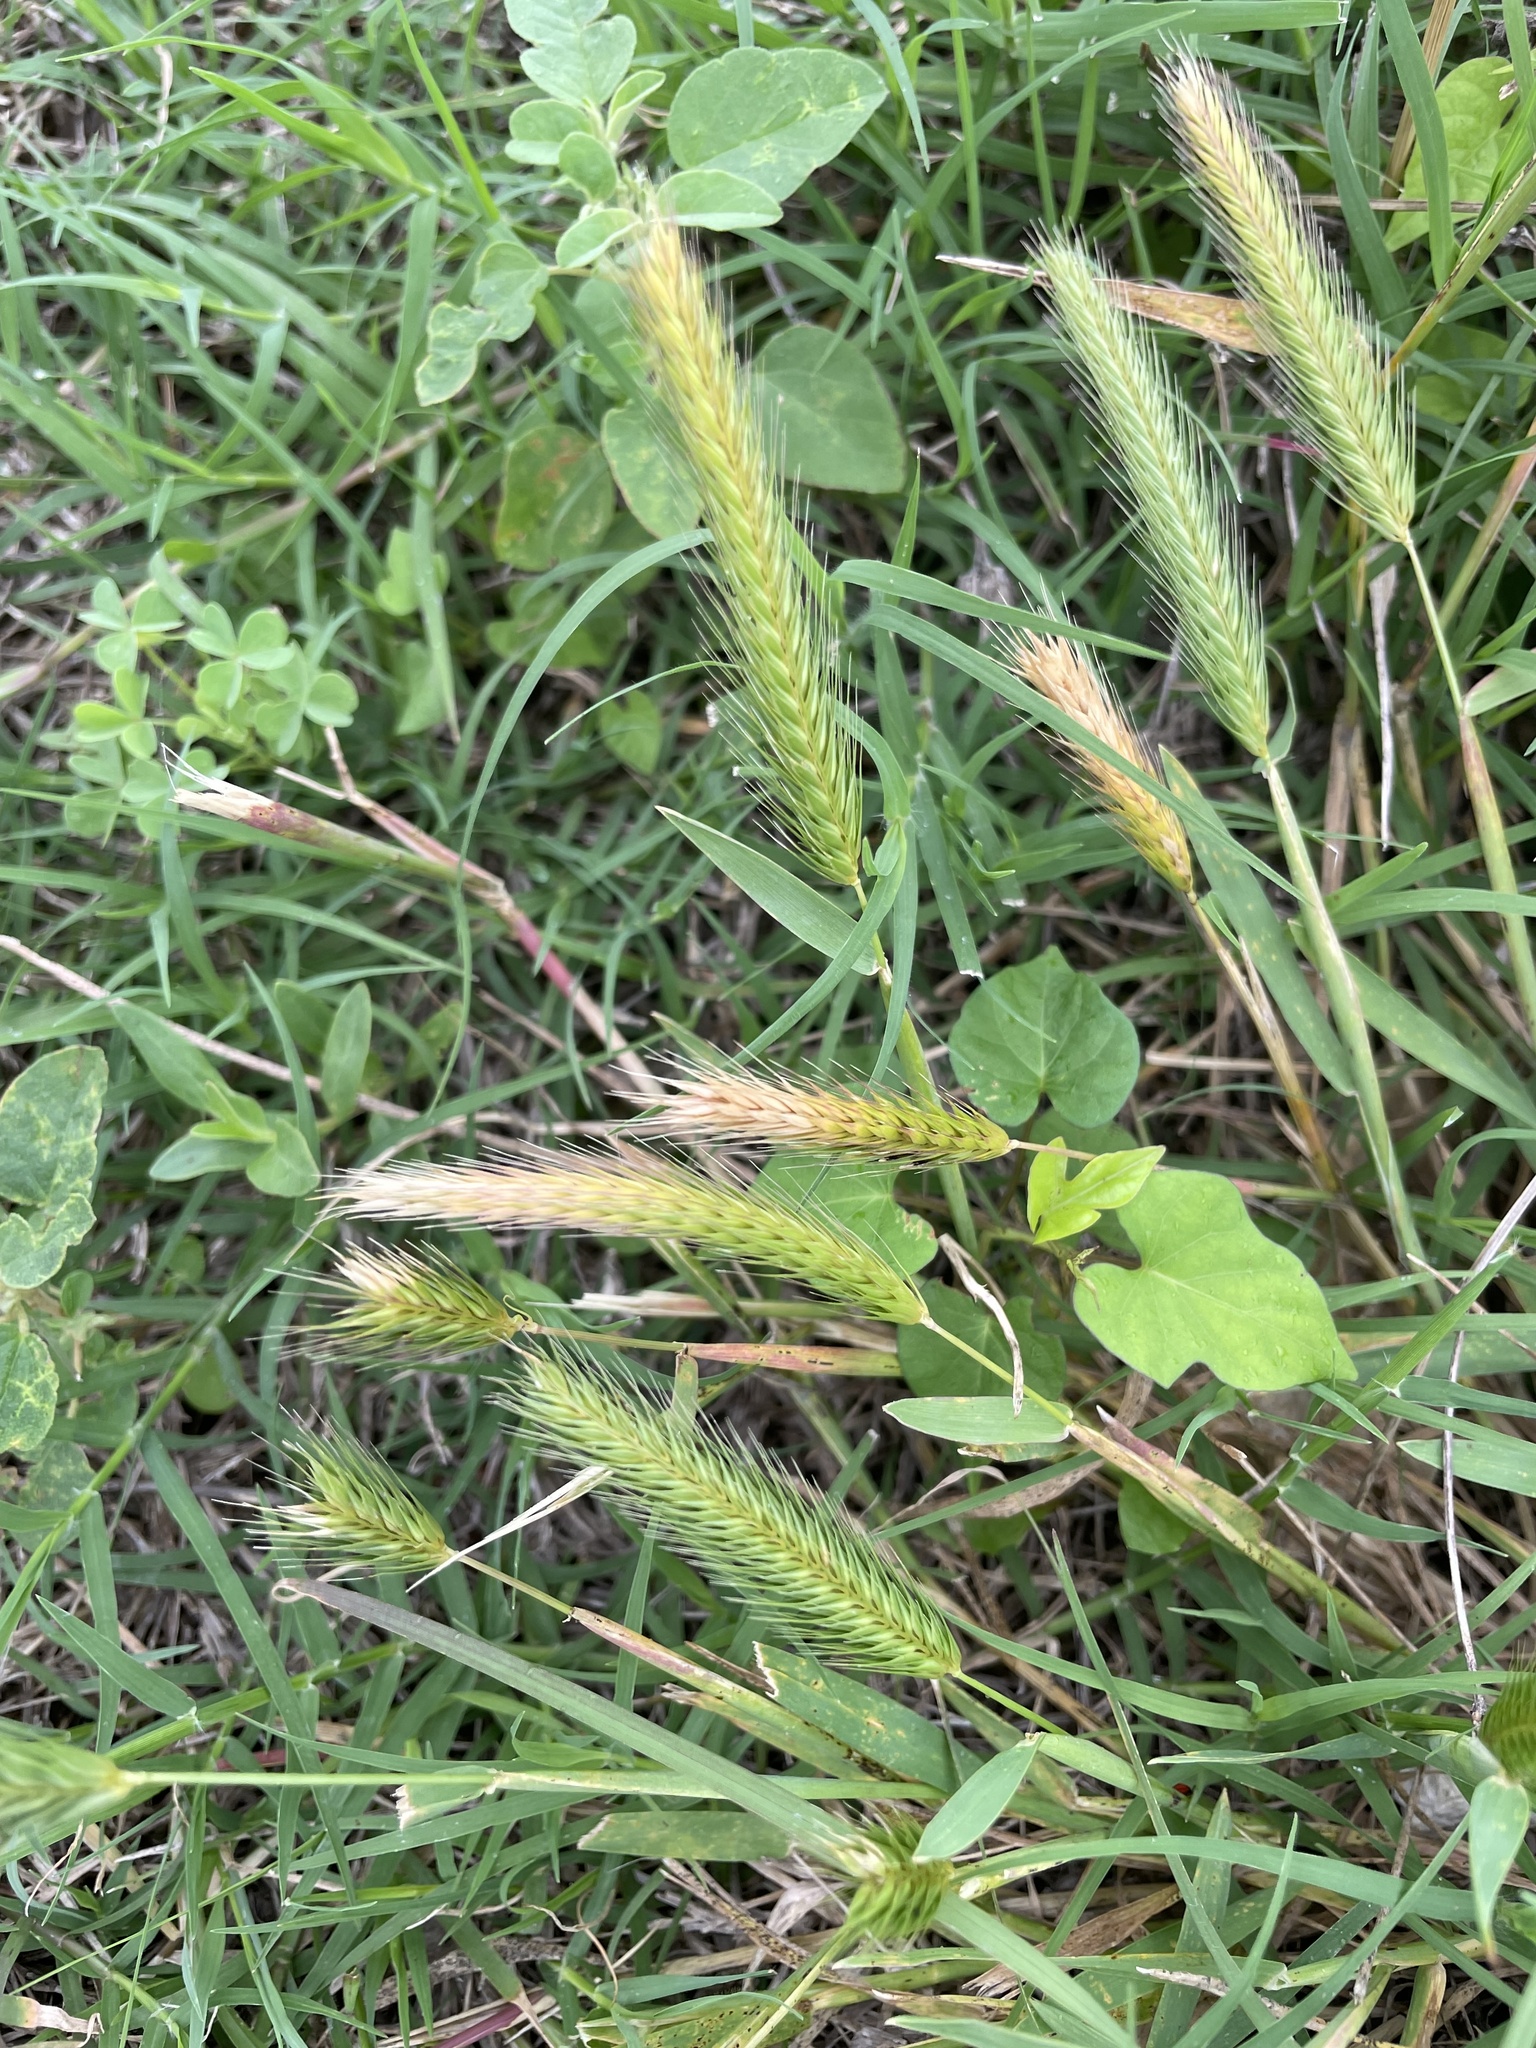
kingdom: Plantae
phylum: Tracheophyta
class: Liliopsida
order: Poales
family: Poaceae
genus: Hordeum
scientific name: Hordeum pusillum
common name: Little barley
